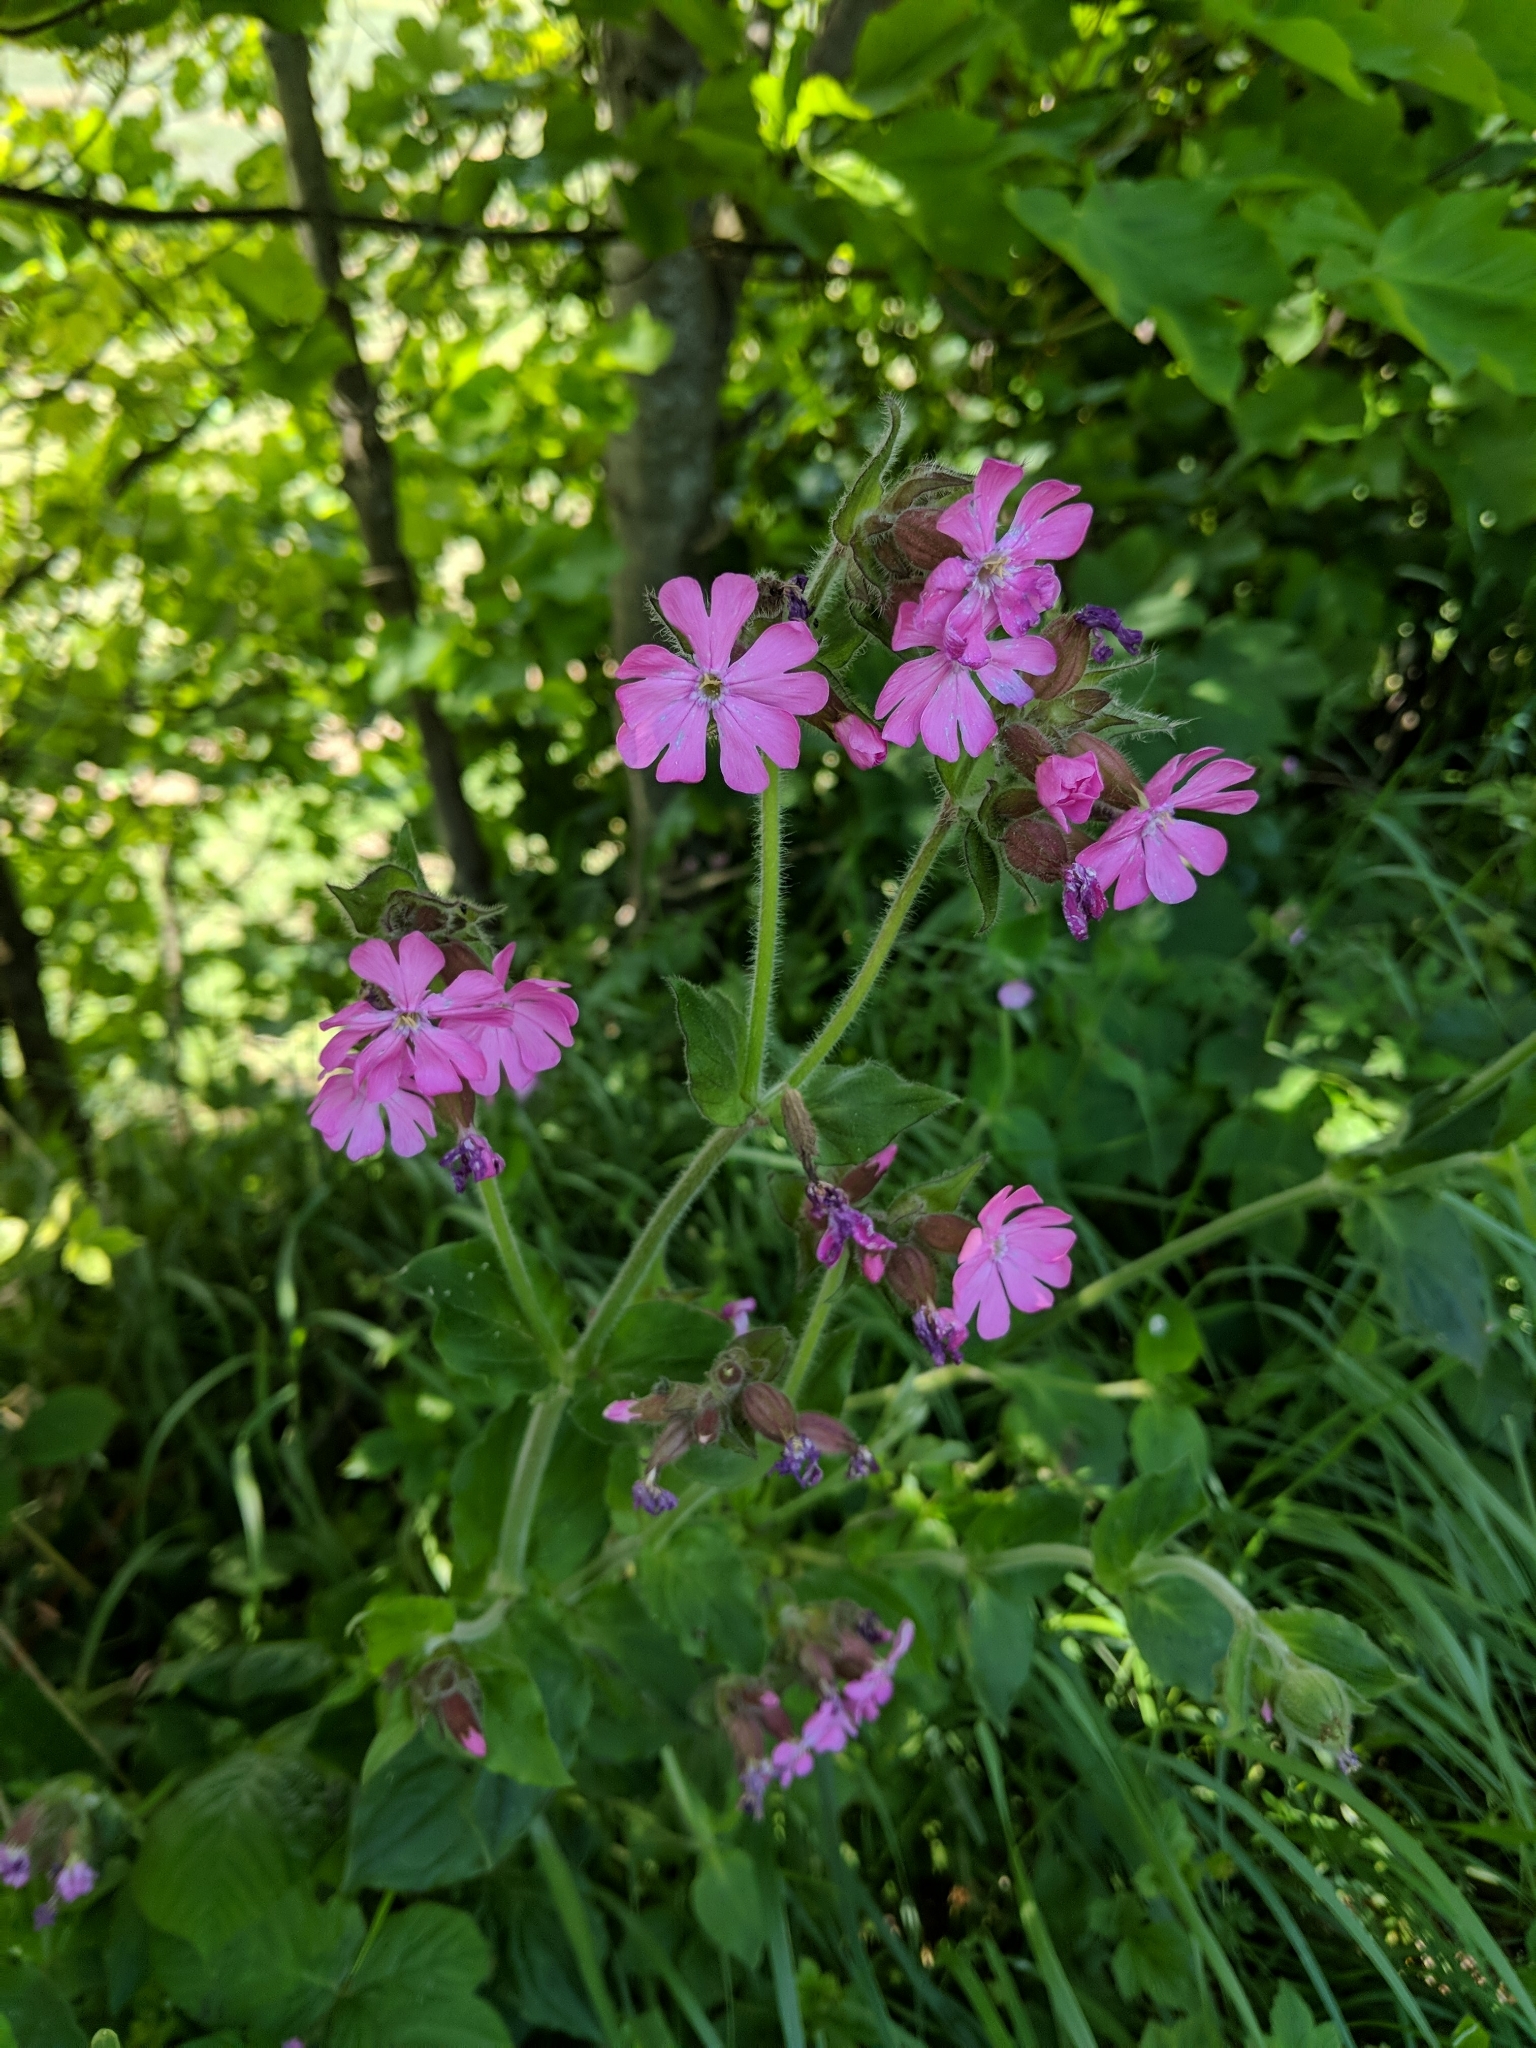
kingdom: Plantae
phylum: Tracheophyta
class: Magnoliopsida
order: Caryophyllales
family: Caryophyllaceae
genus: Silene
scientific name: Silene dioica
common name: Red campion
